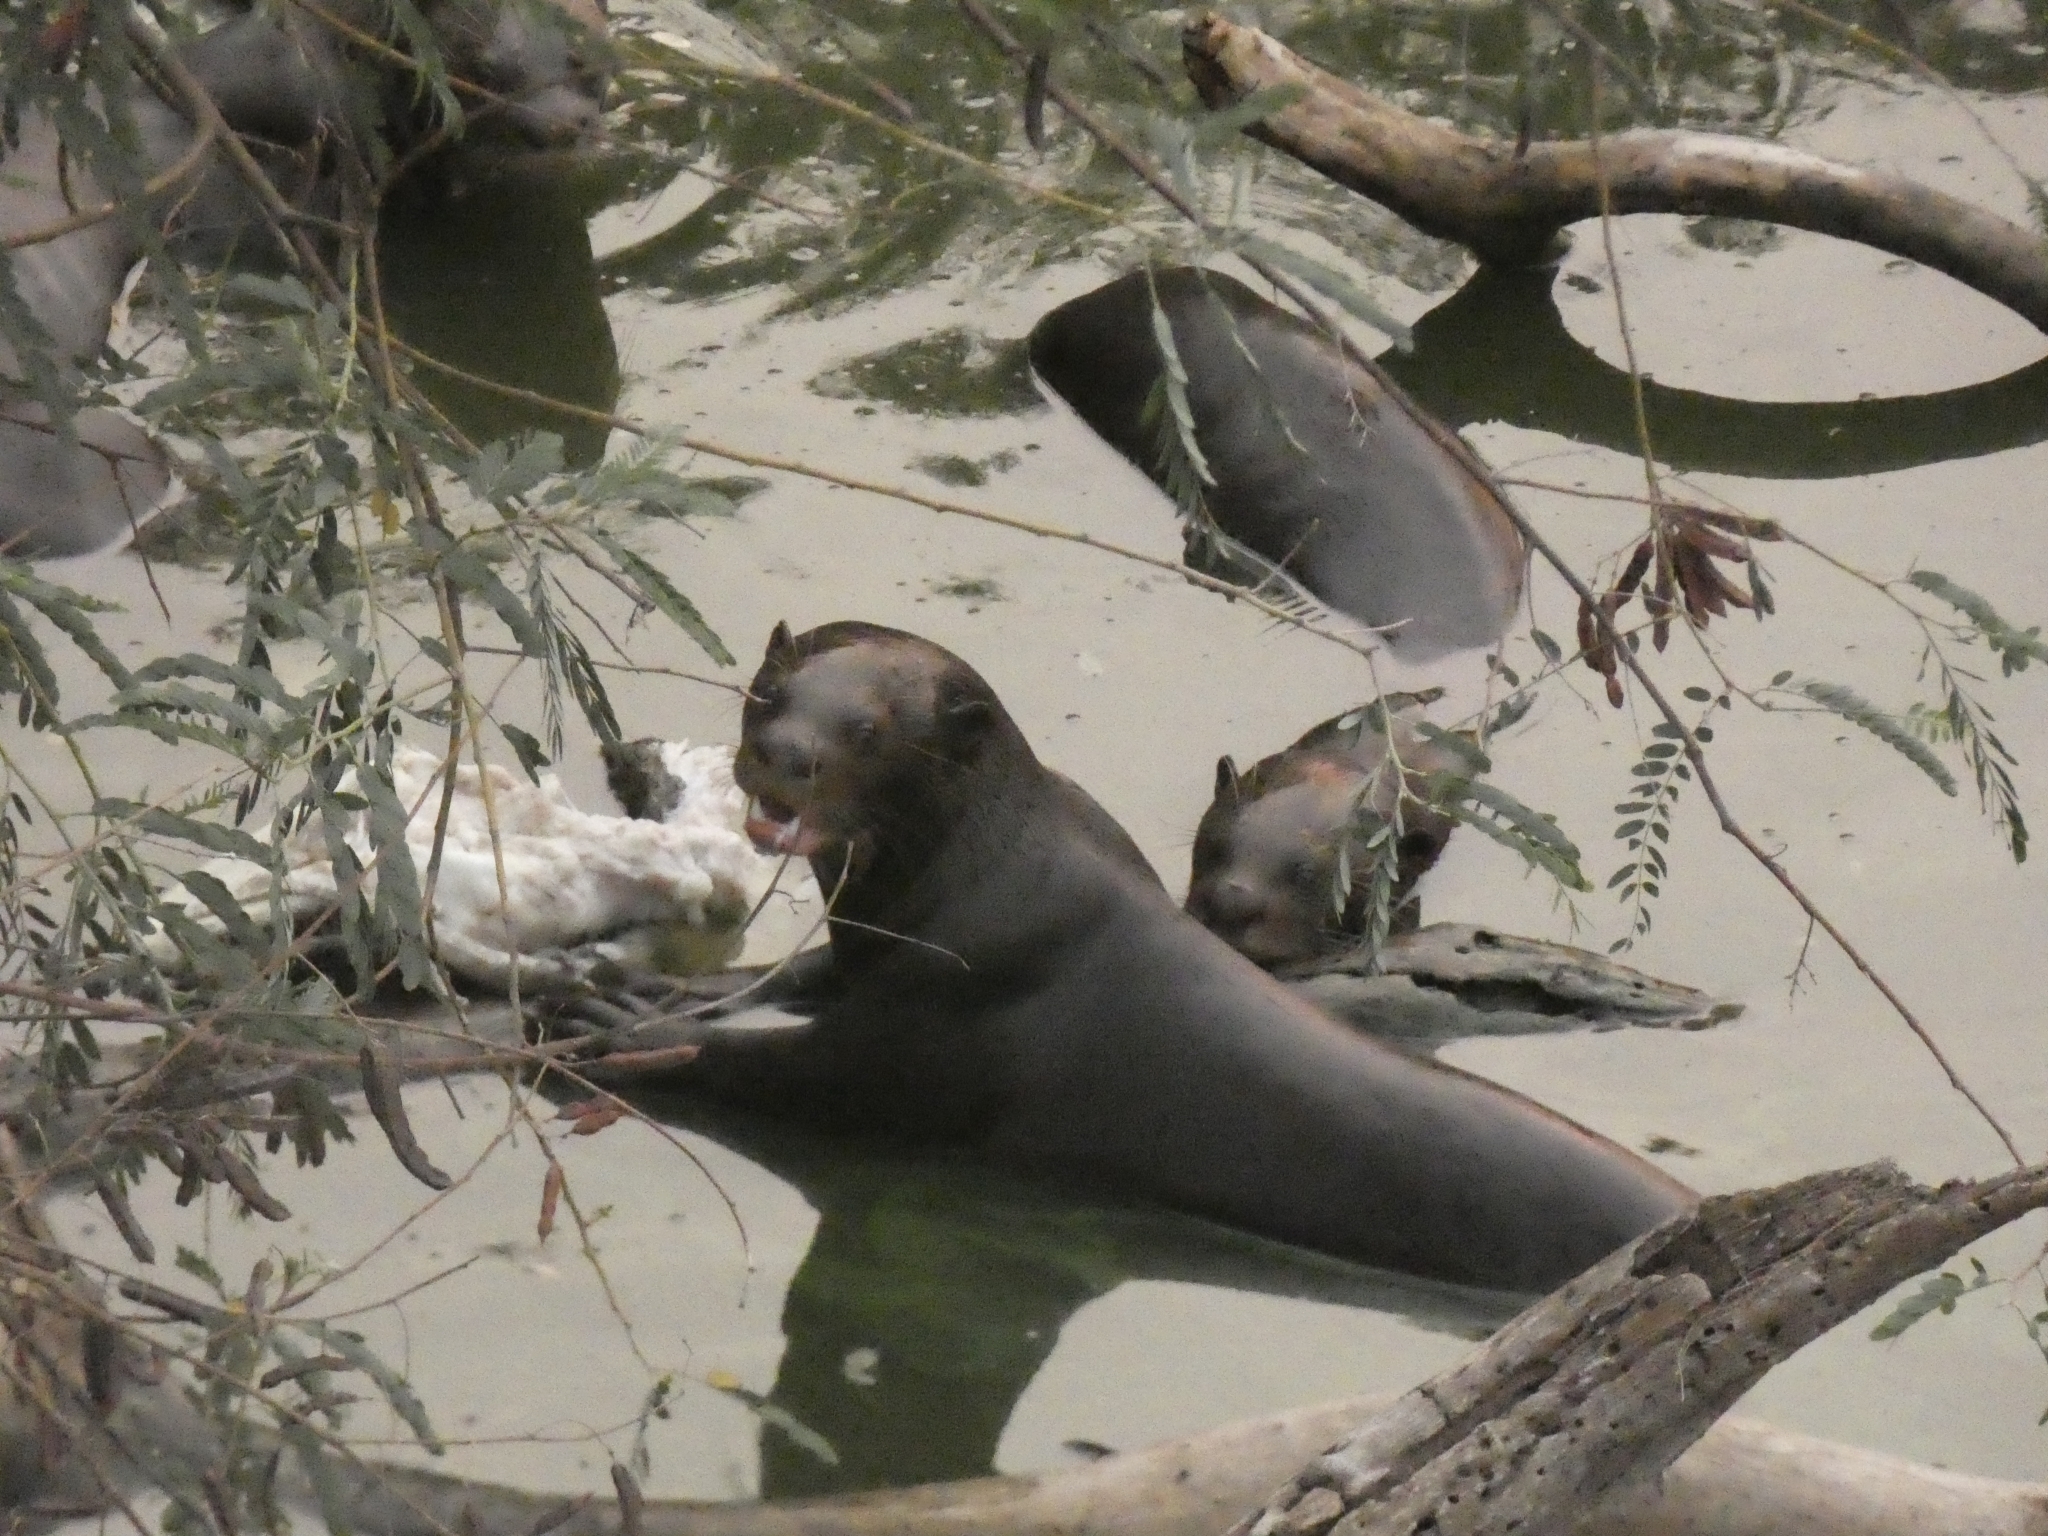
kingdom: Animalia
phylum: Chordata
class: Mammalia
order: Carnivora
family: Mustelidae
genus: Pteronura
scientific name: Pteronura brasiliensis
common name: Giant otter
